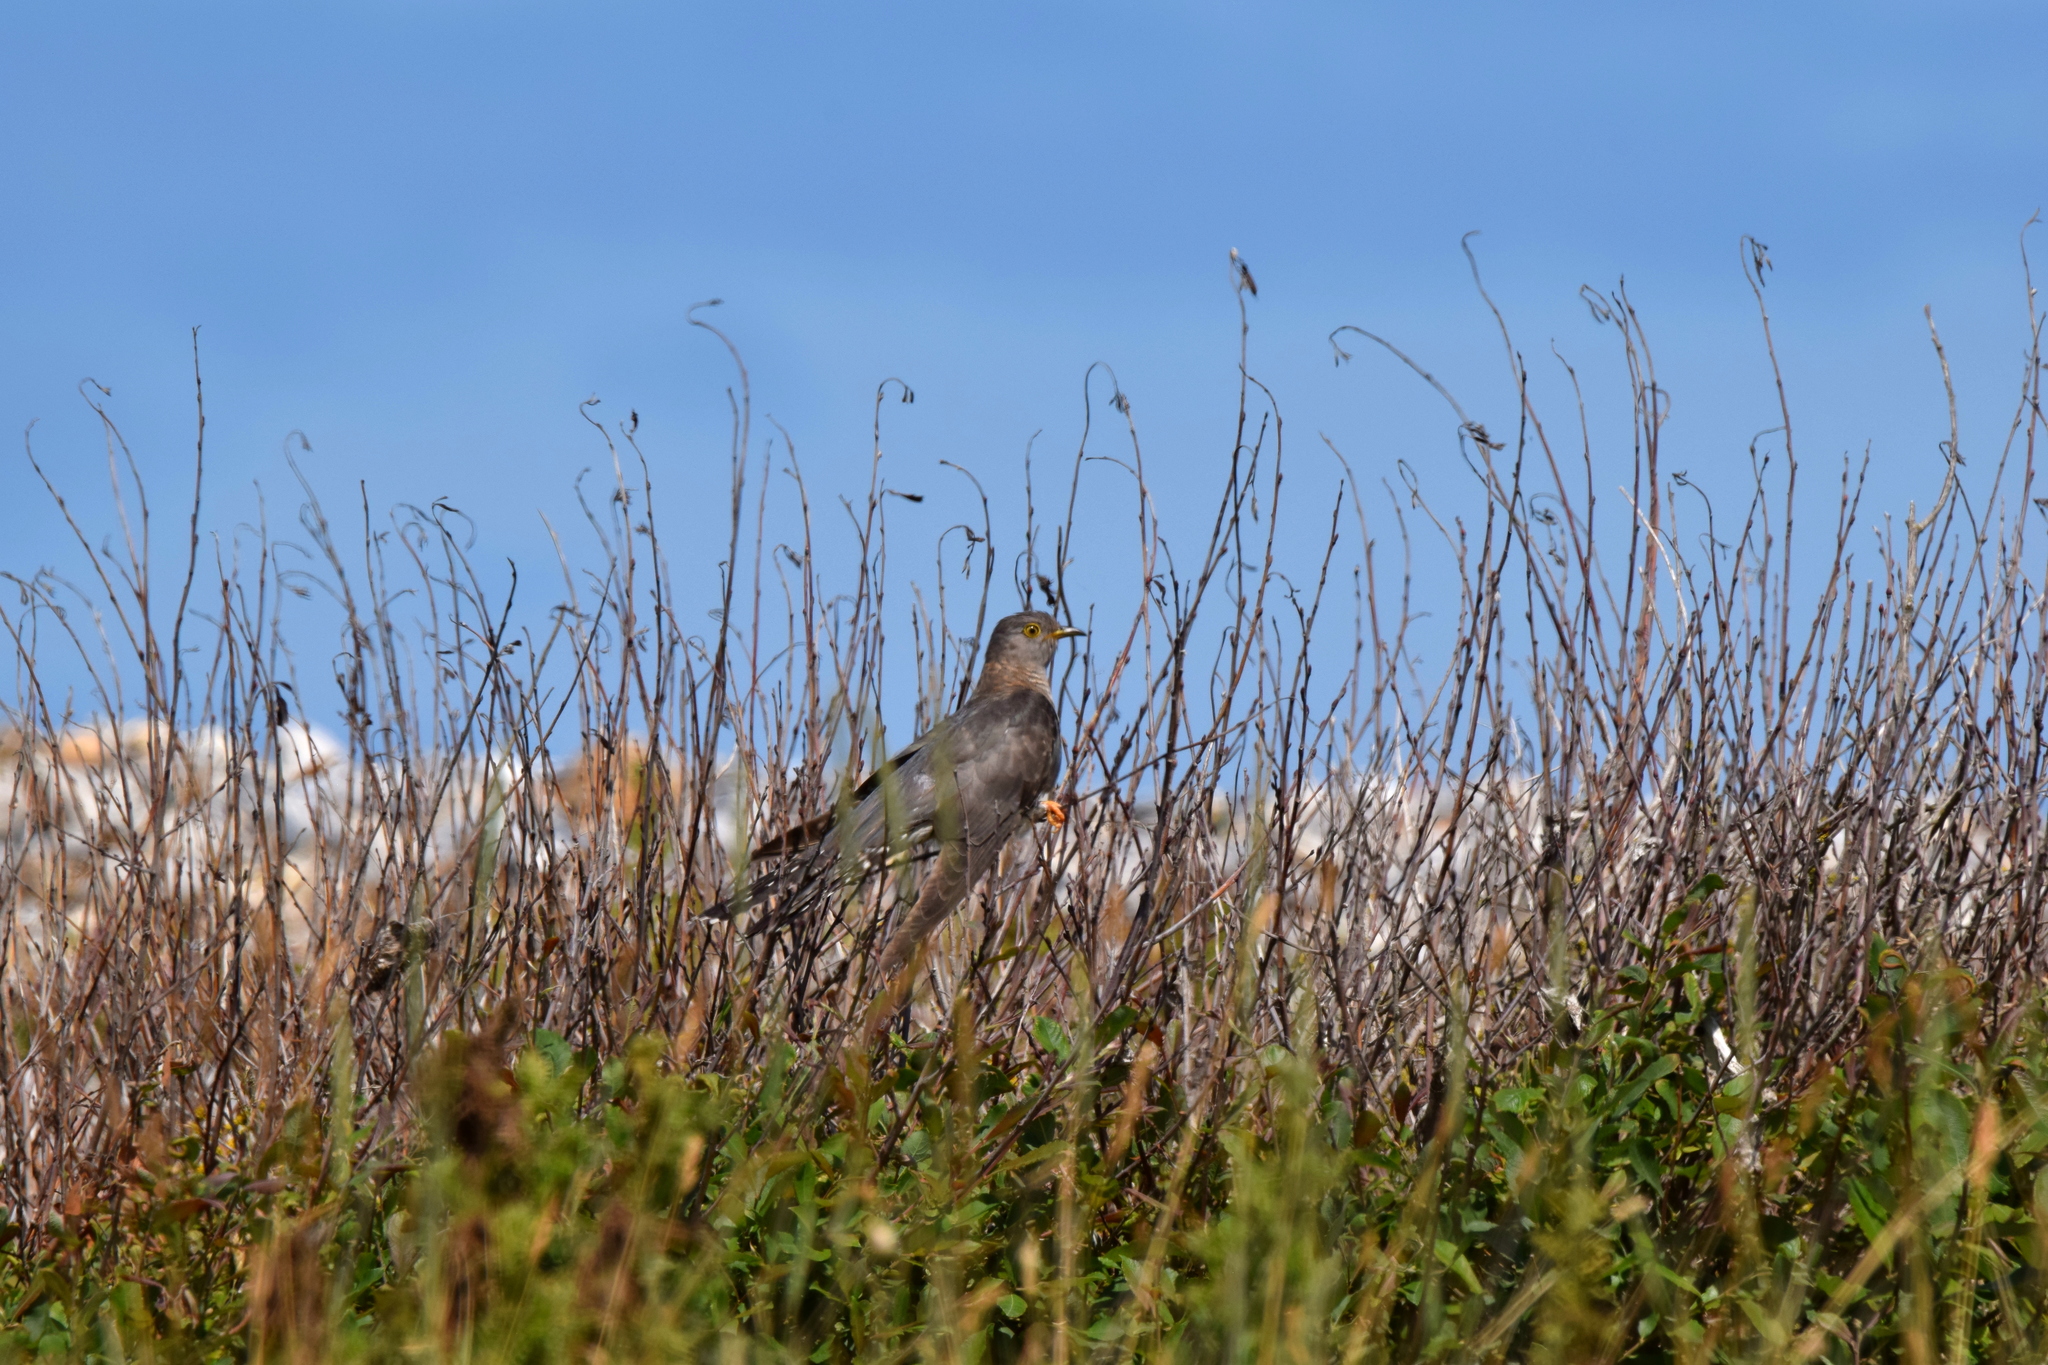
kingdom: Animalia
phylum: Chordata
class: Aves
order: Cuculiformes
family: Cuculidae
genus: Cuculus
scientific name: Cuculus canorus
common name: Common cuckoo
